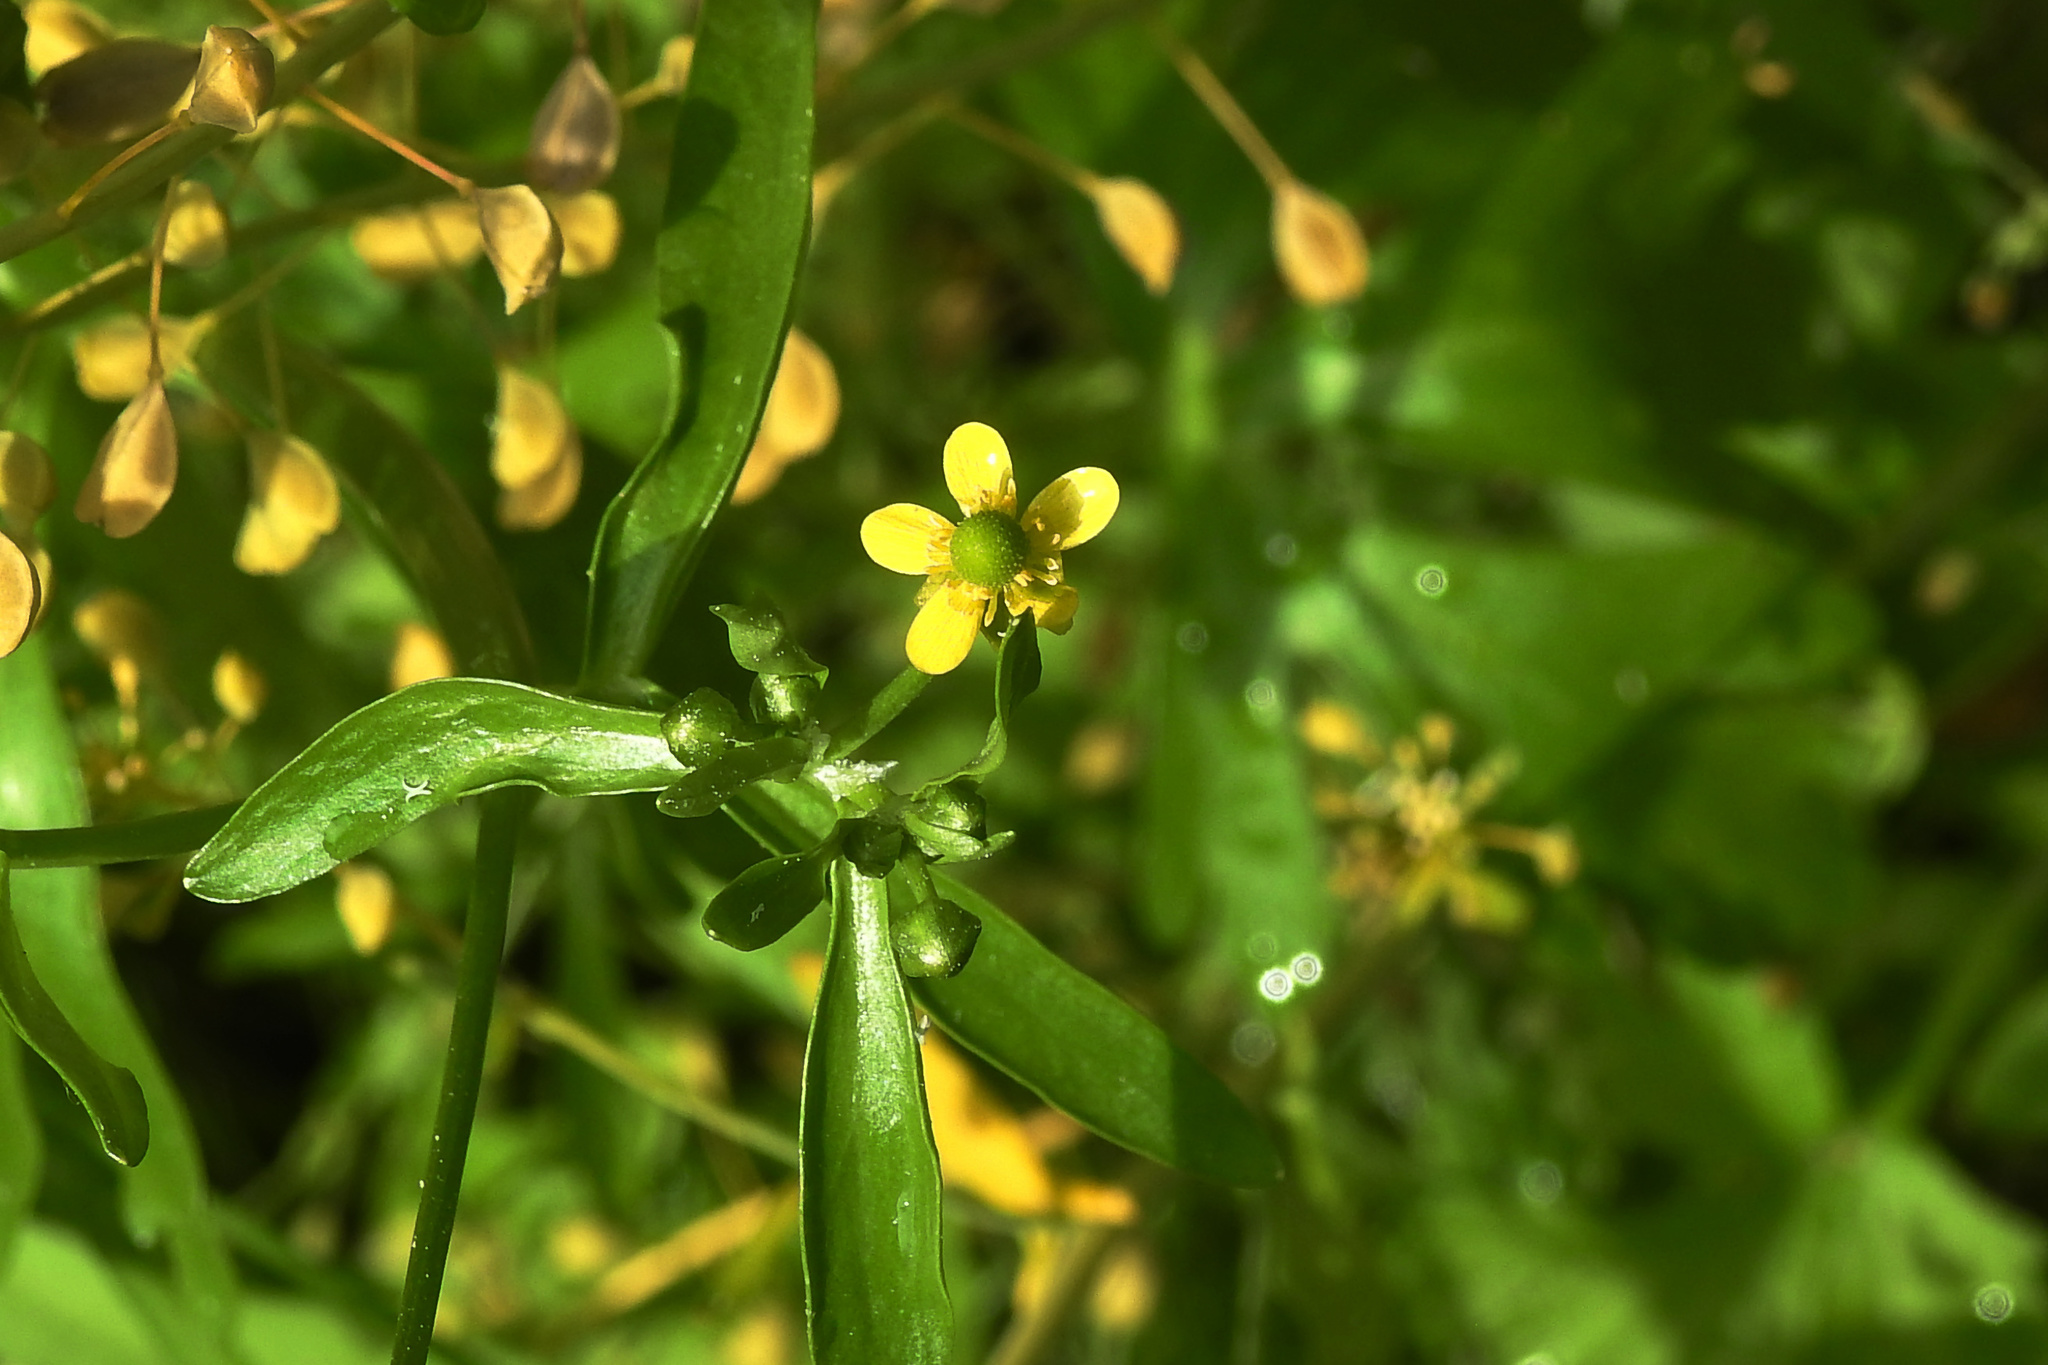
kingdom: Plantae
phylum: Tracheophyta
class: Magnoliopsida
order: Ranunculales
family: Ranunculaceae
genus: Ranunculus
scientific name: Ranunculus sceleratus
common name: Celery-leaved buttercup
